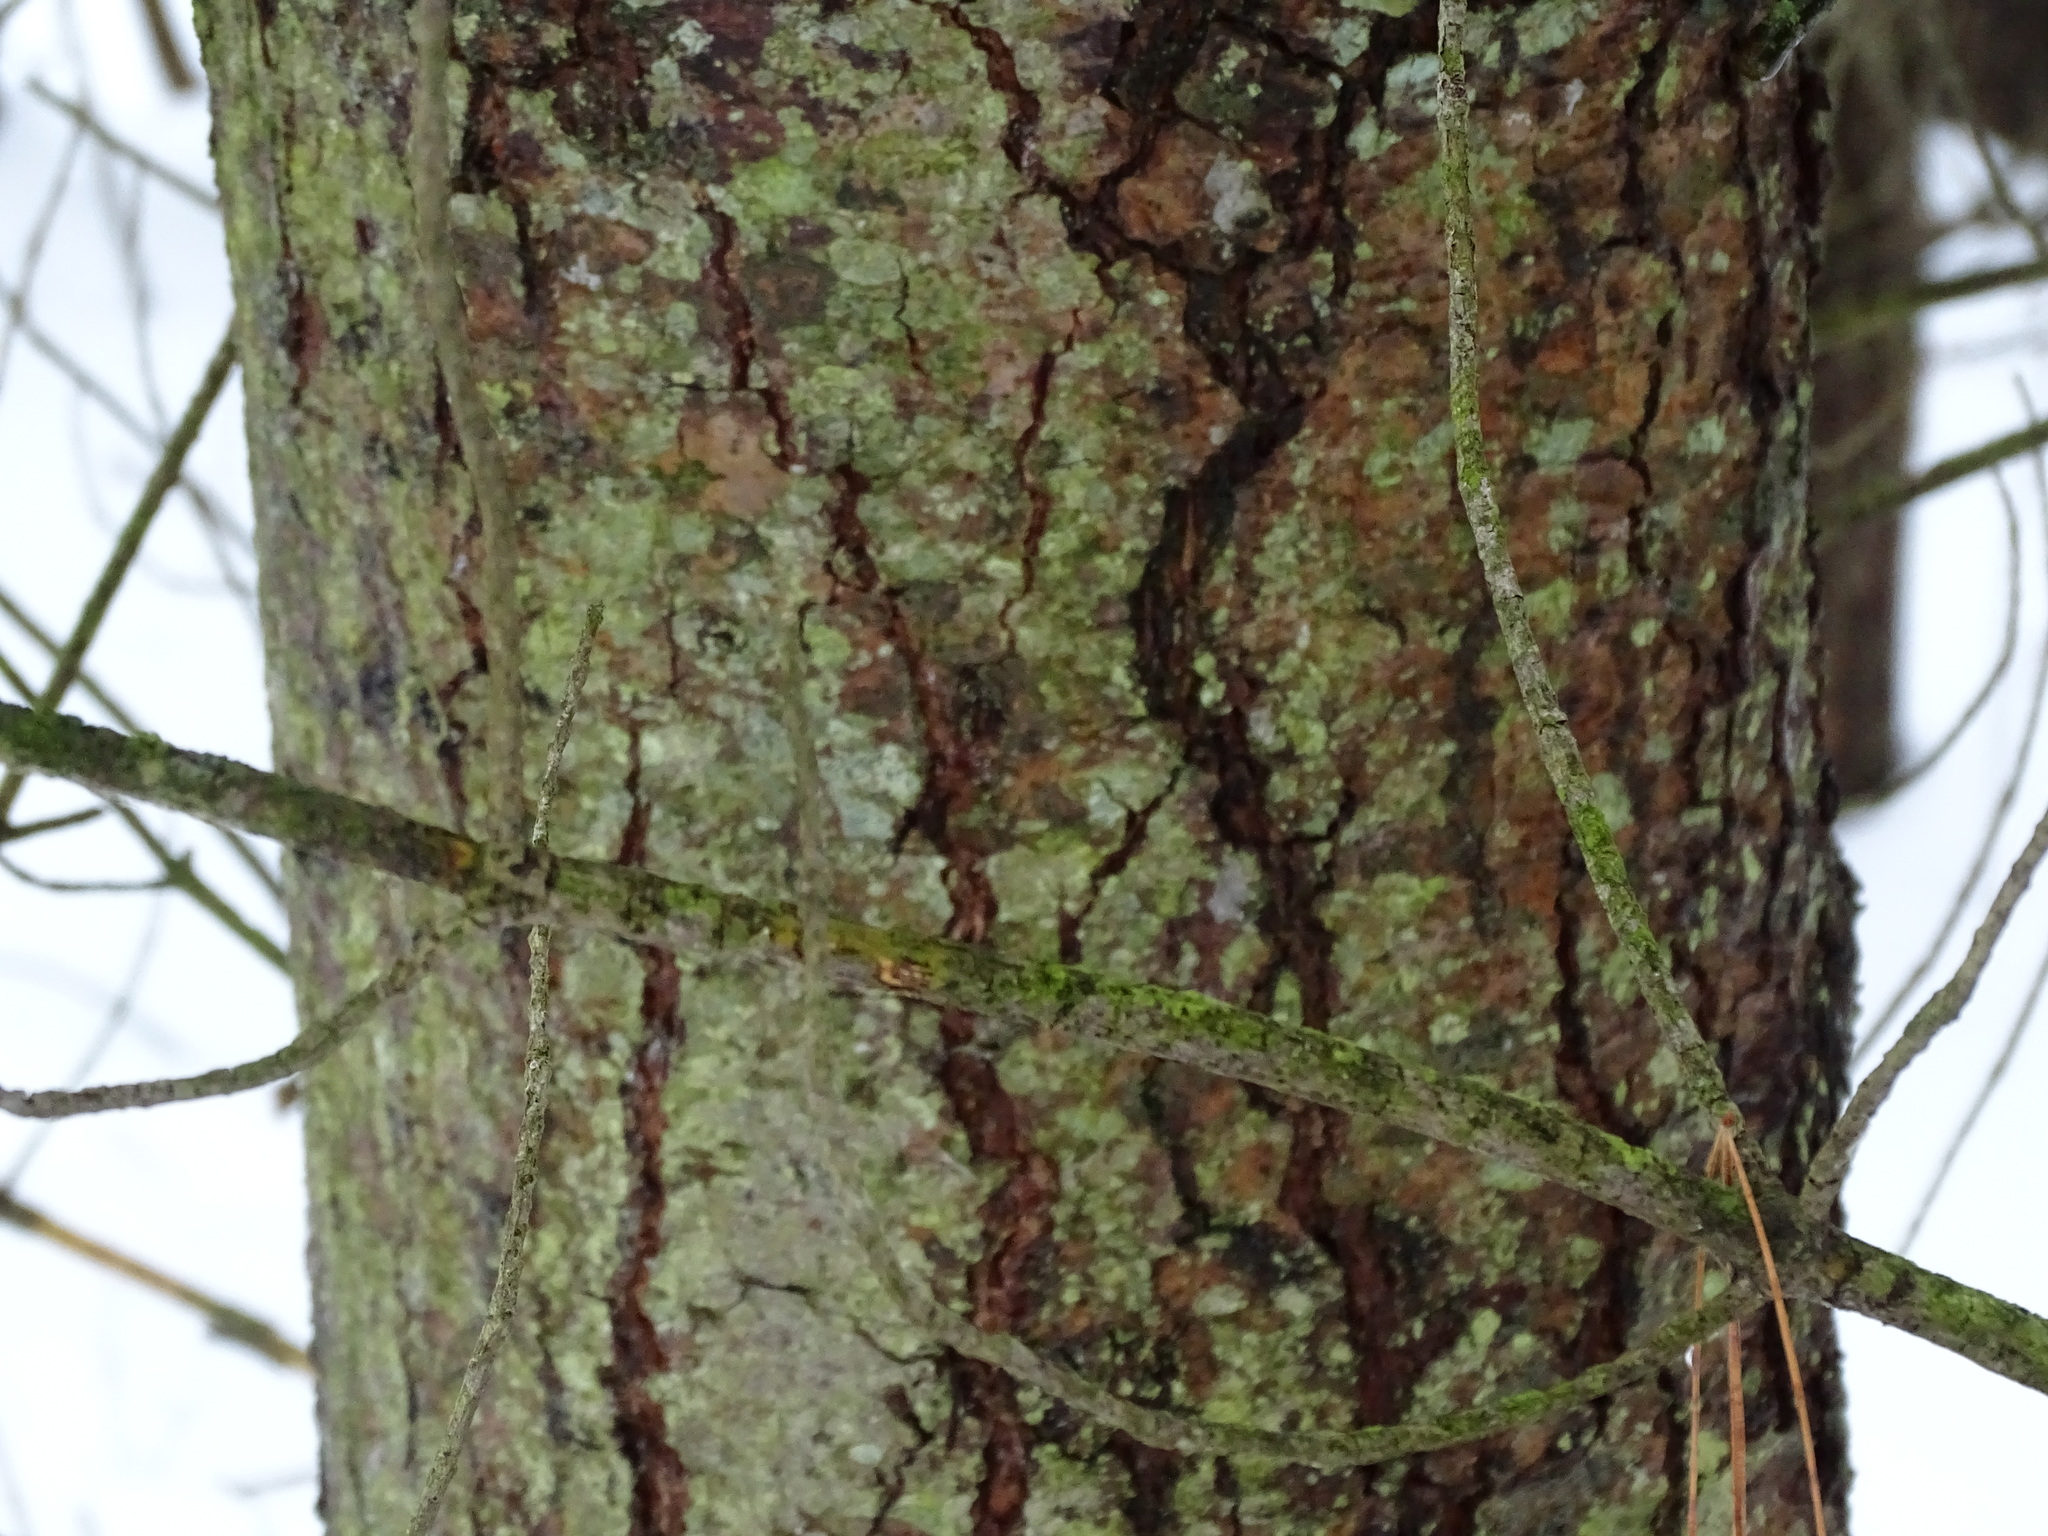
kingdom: Plantae
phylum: Tracheophyta
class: Pinopsida
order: Pinales
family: Pinaceae
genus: Pinus
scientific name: Pinus strobus
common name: Weymouth pine
